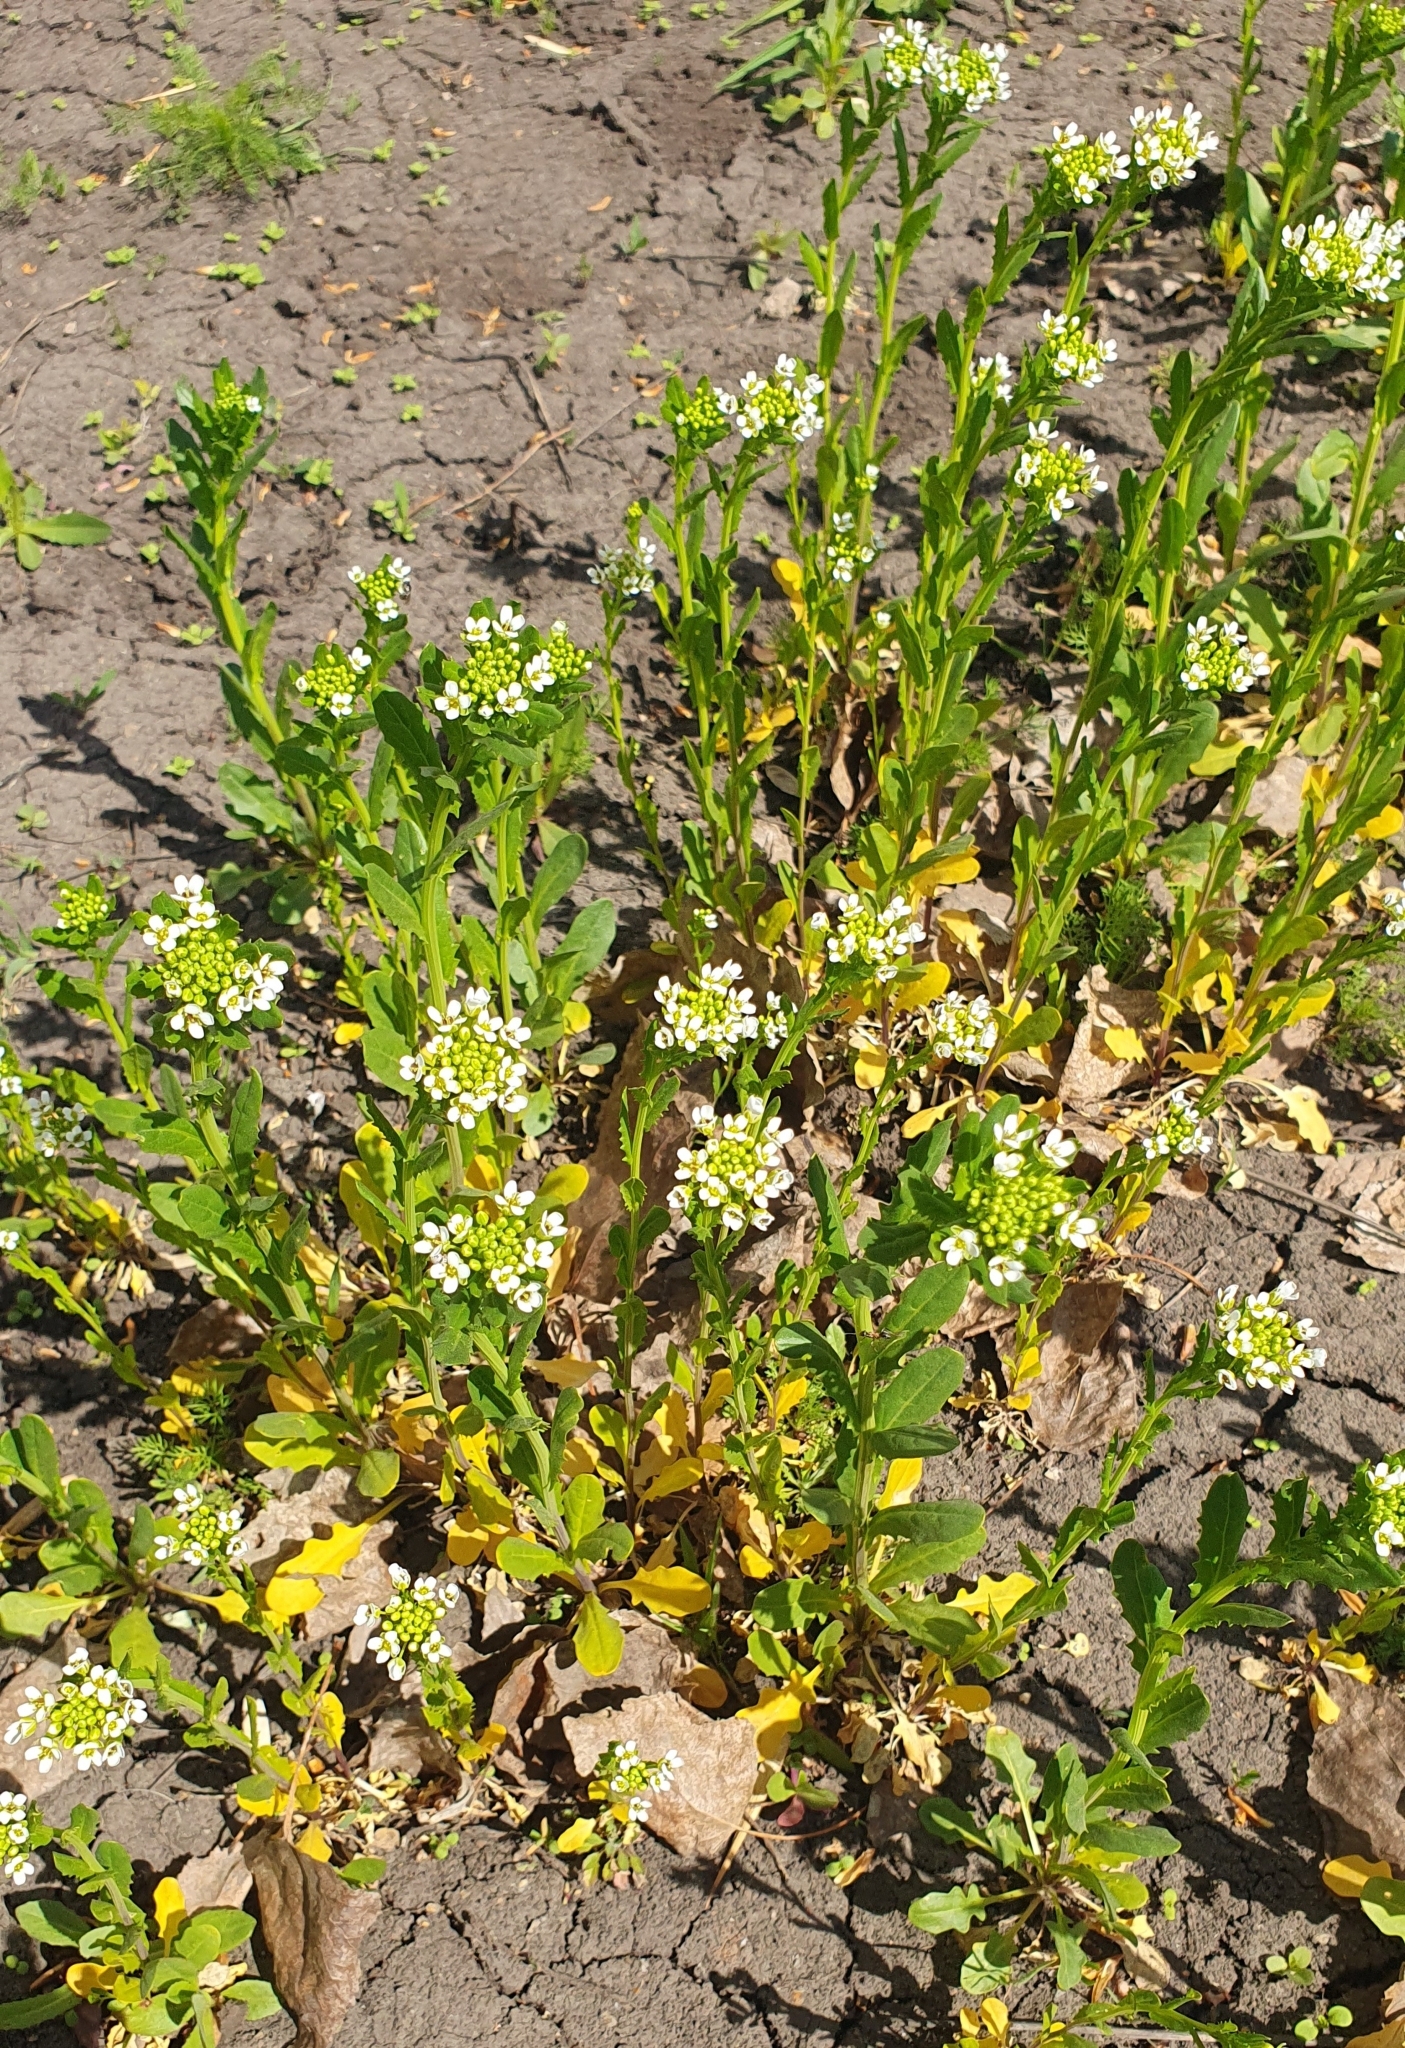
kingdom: Plantae
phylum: Tracheophyta
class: Magnoliopsida
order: Brassicales
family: Brassicaceae
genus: Thlaspi
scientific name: Thlaspi arvense
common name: Field pennycress
